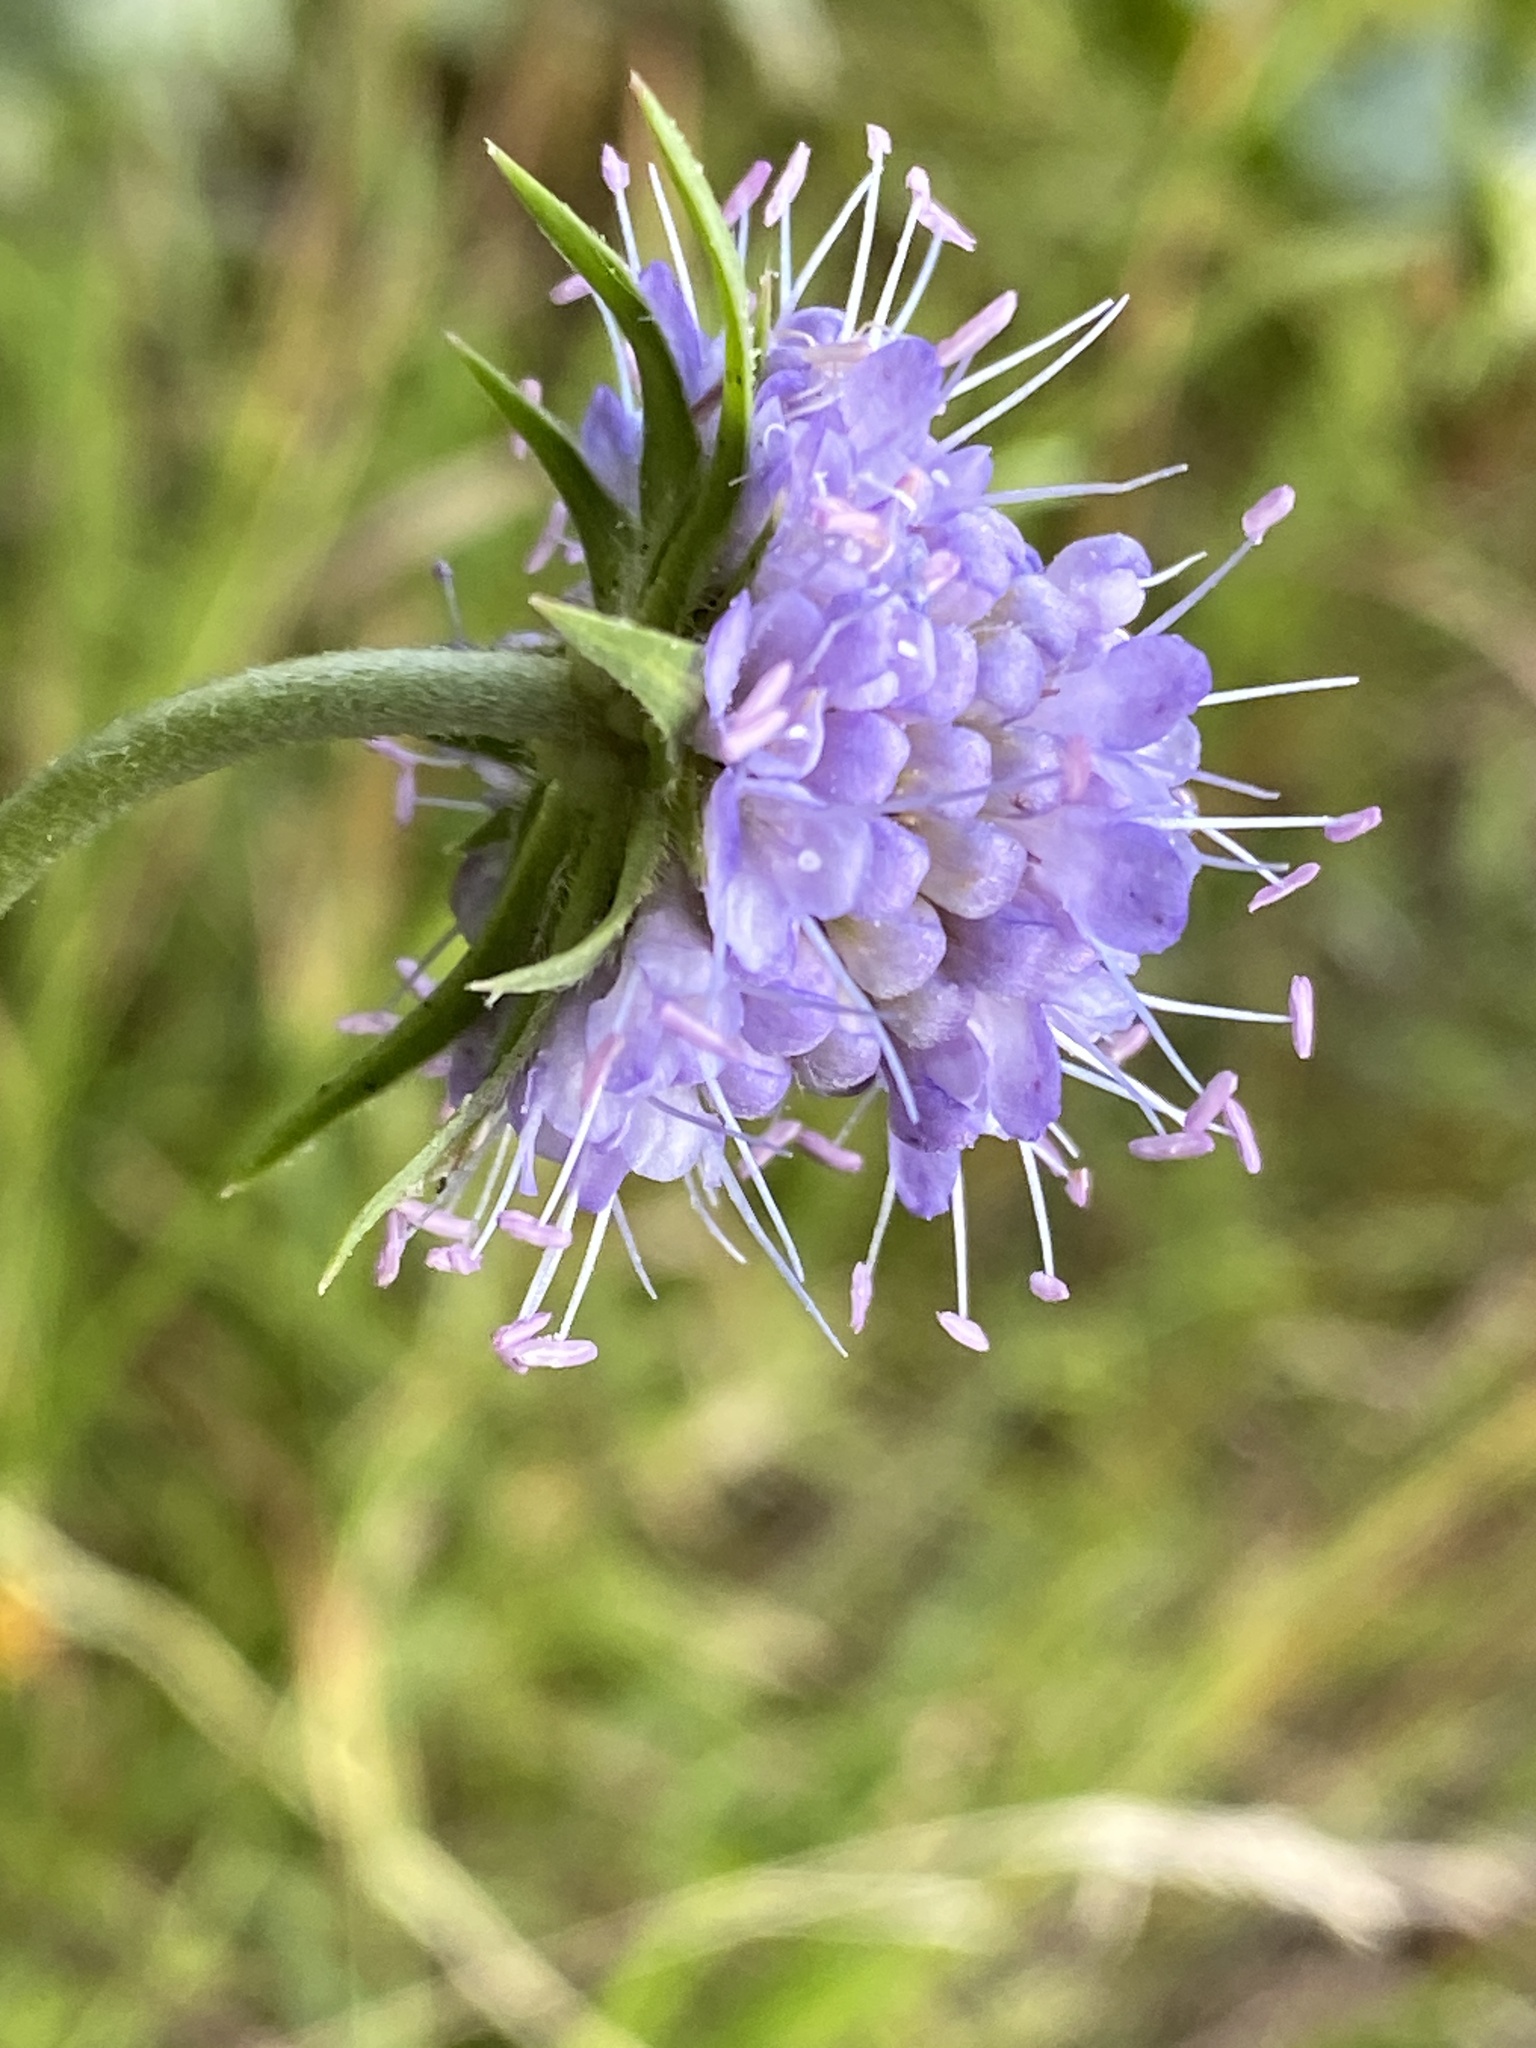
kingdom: Plantae
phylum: Tracheophyta
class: Magnoliopsida
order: Dipsacales
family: Caprifoliaceae
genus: Succisa
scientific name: Succisa pratensis
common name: Devil's-bit
